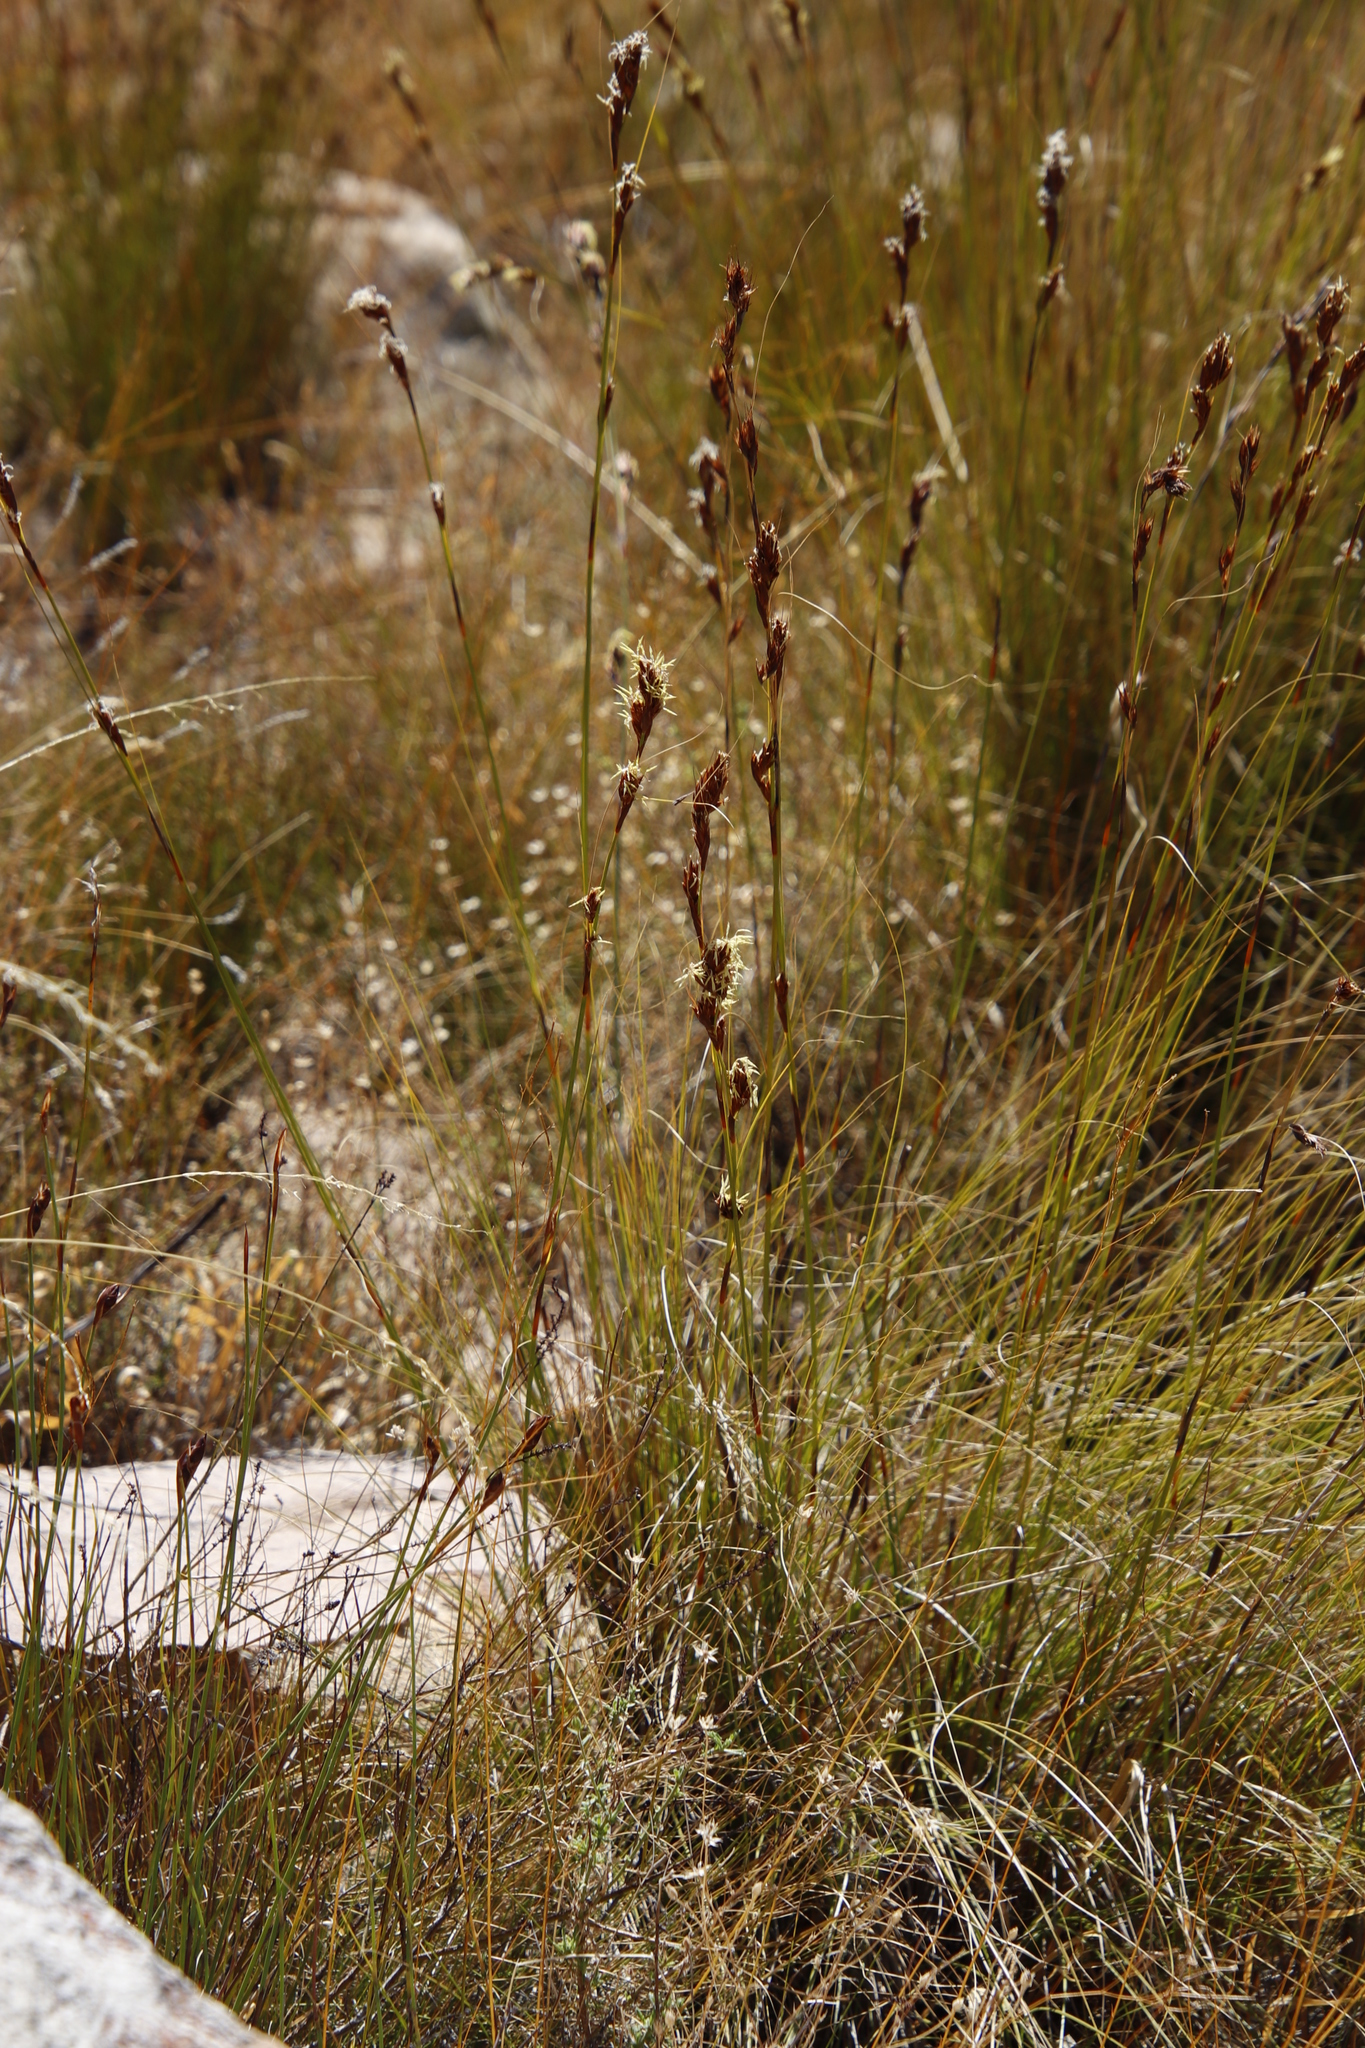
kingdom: Plantae
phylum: Tracheophyta
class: Liliopsida
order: Poales
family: Cyperaceae
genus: Tetraria
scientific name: Tetraria ustulata
